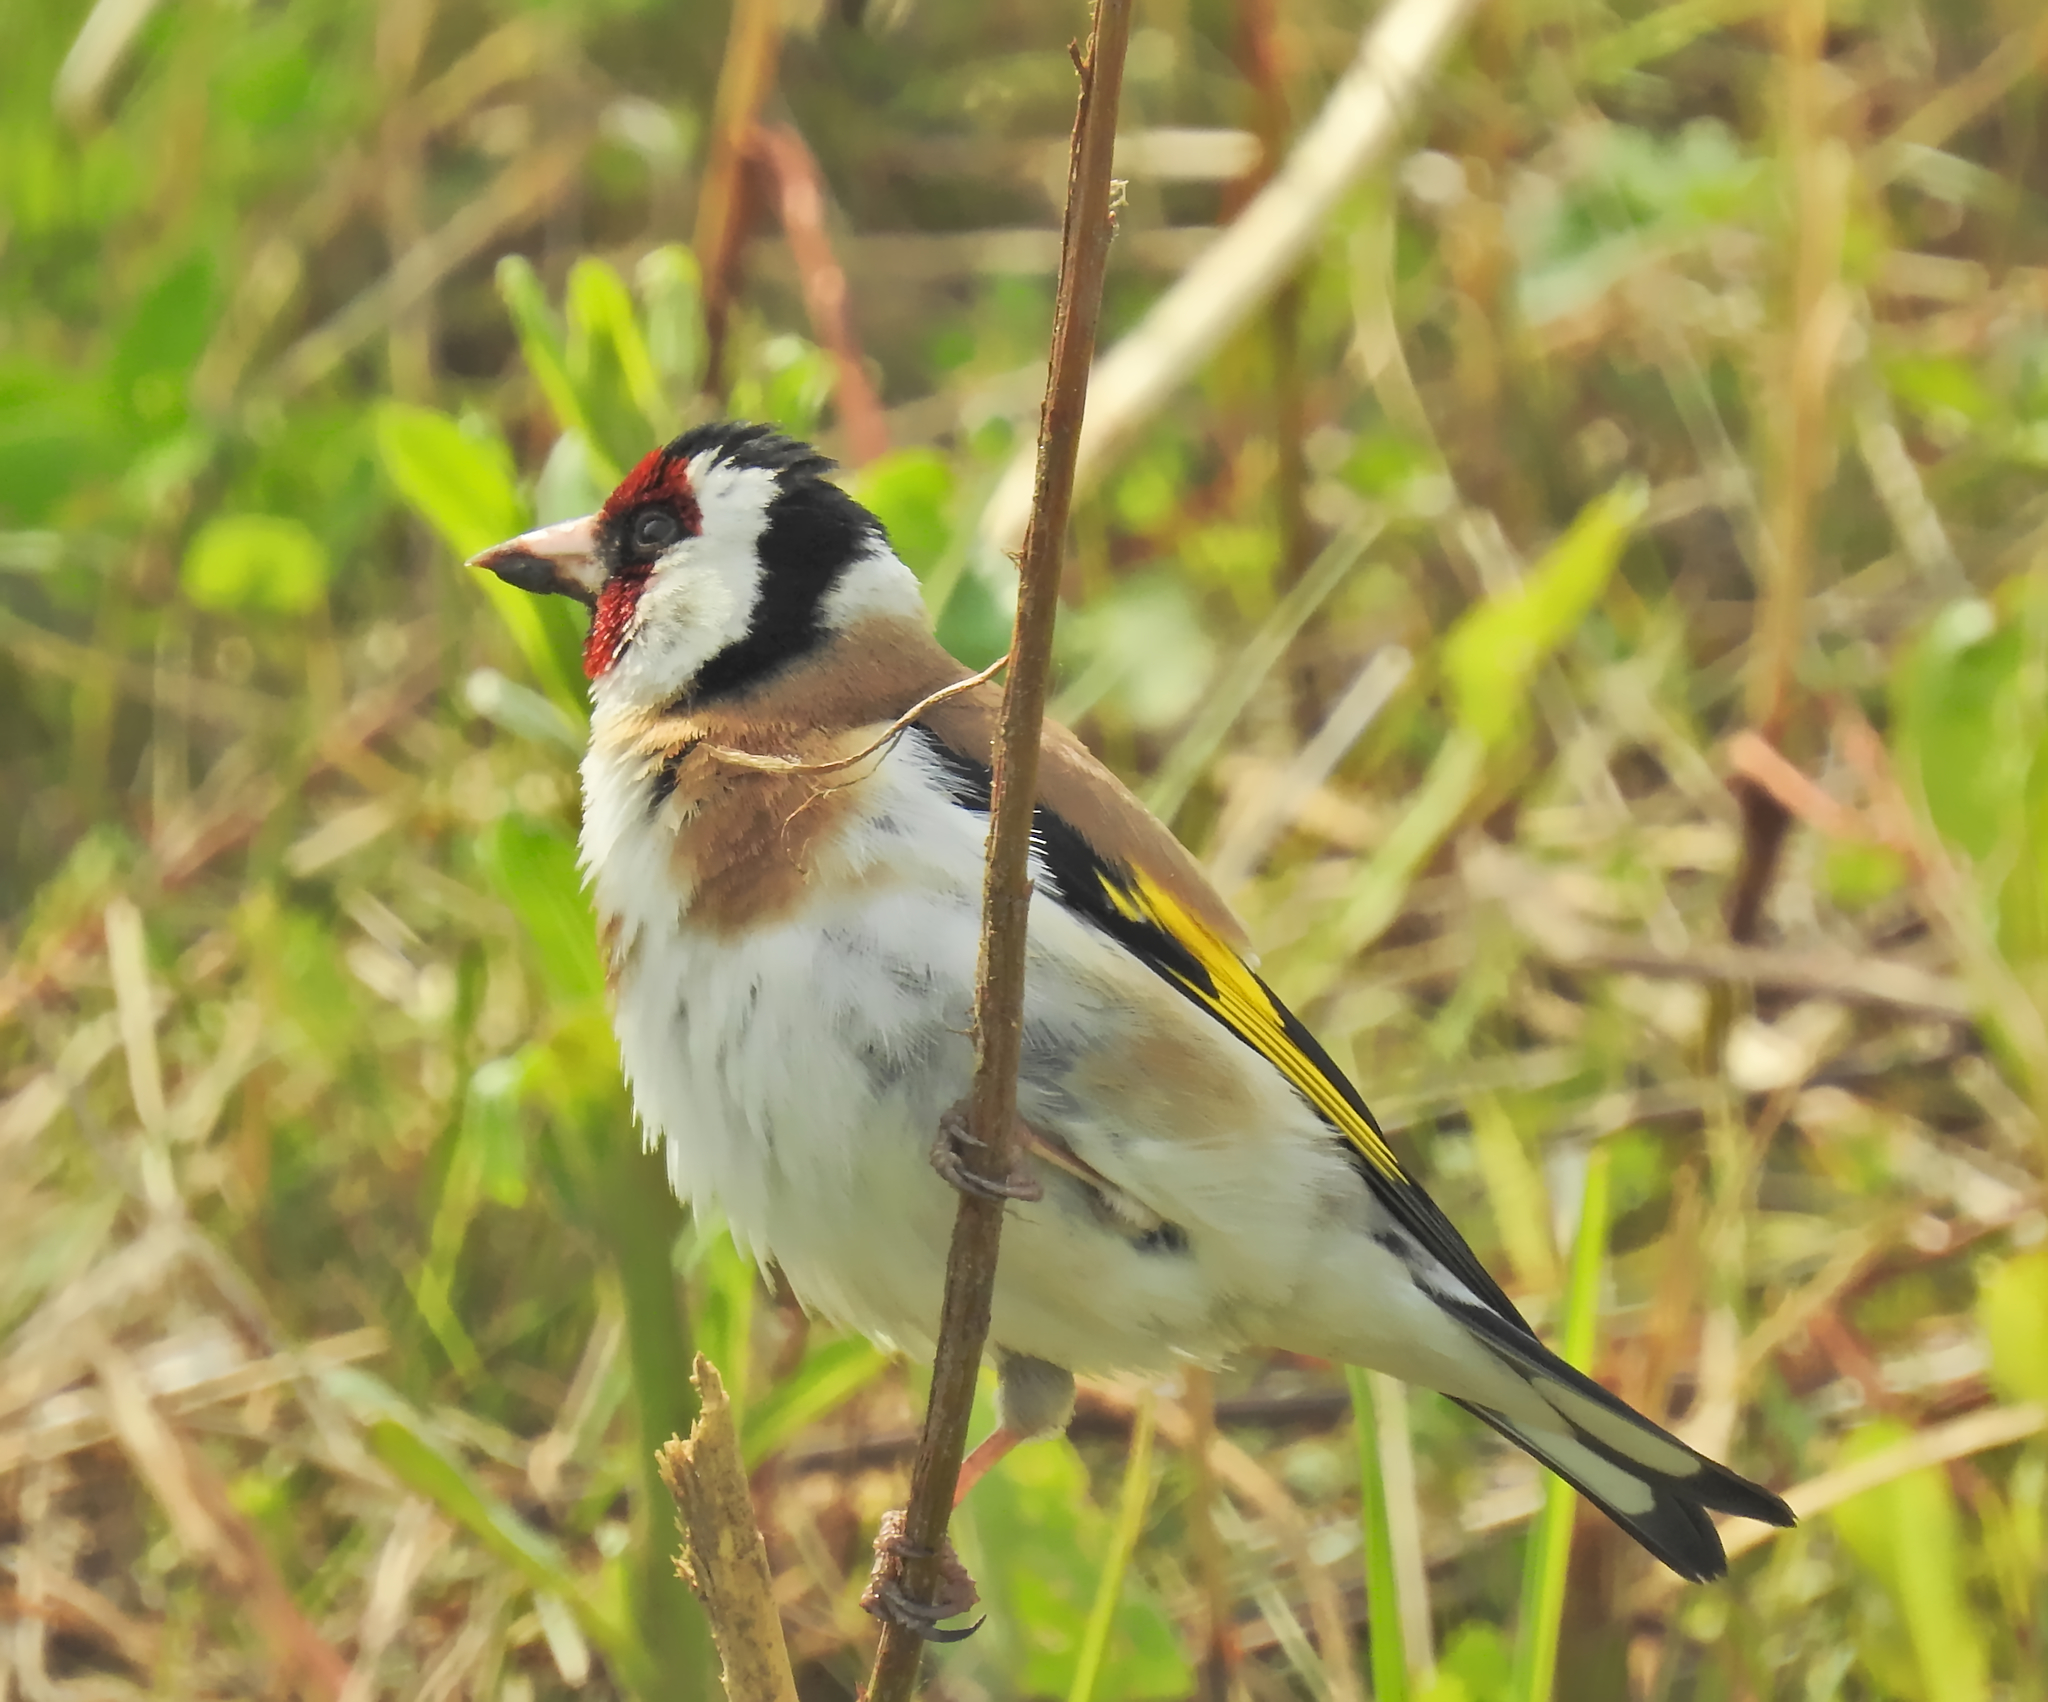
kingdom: Animalia
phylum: Chordata
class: Aves
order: Passeriformes
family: Fringillidae
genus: Carduelis
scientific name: Carduelis carduelis
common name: European goldfinch
